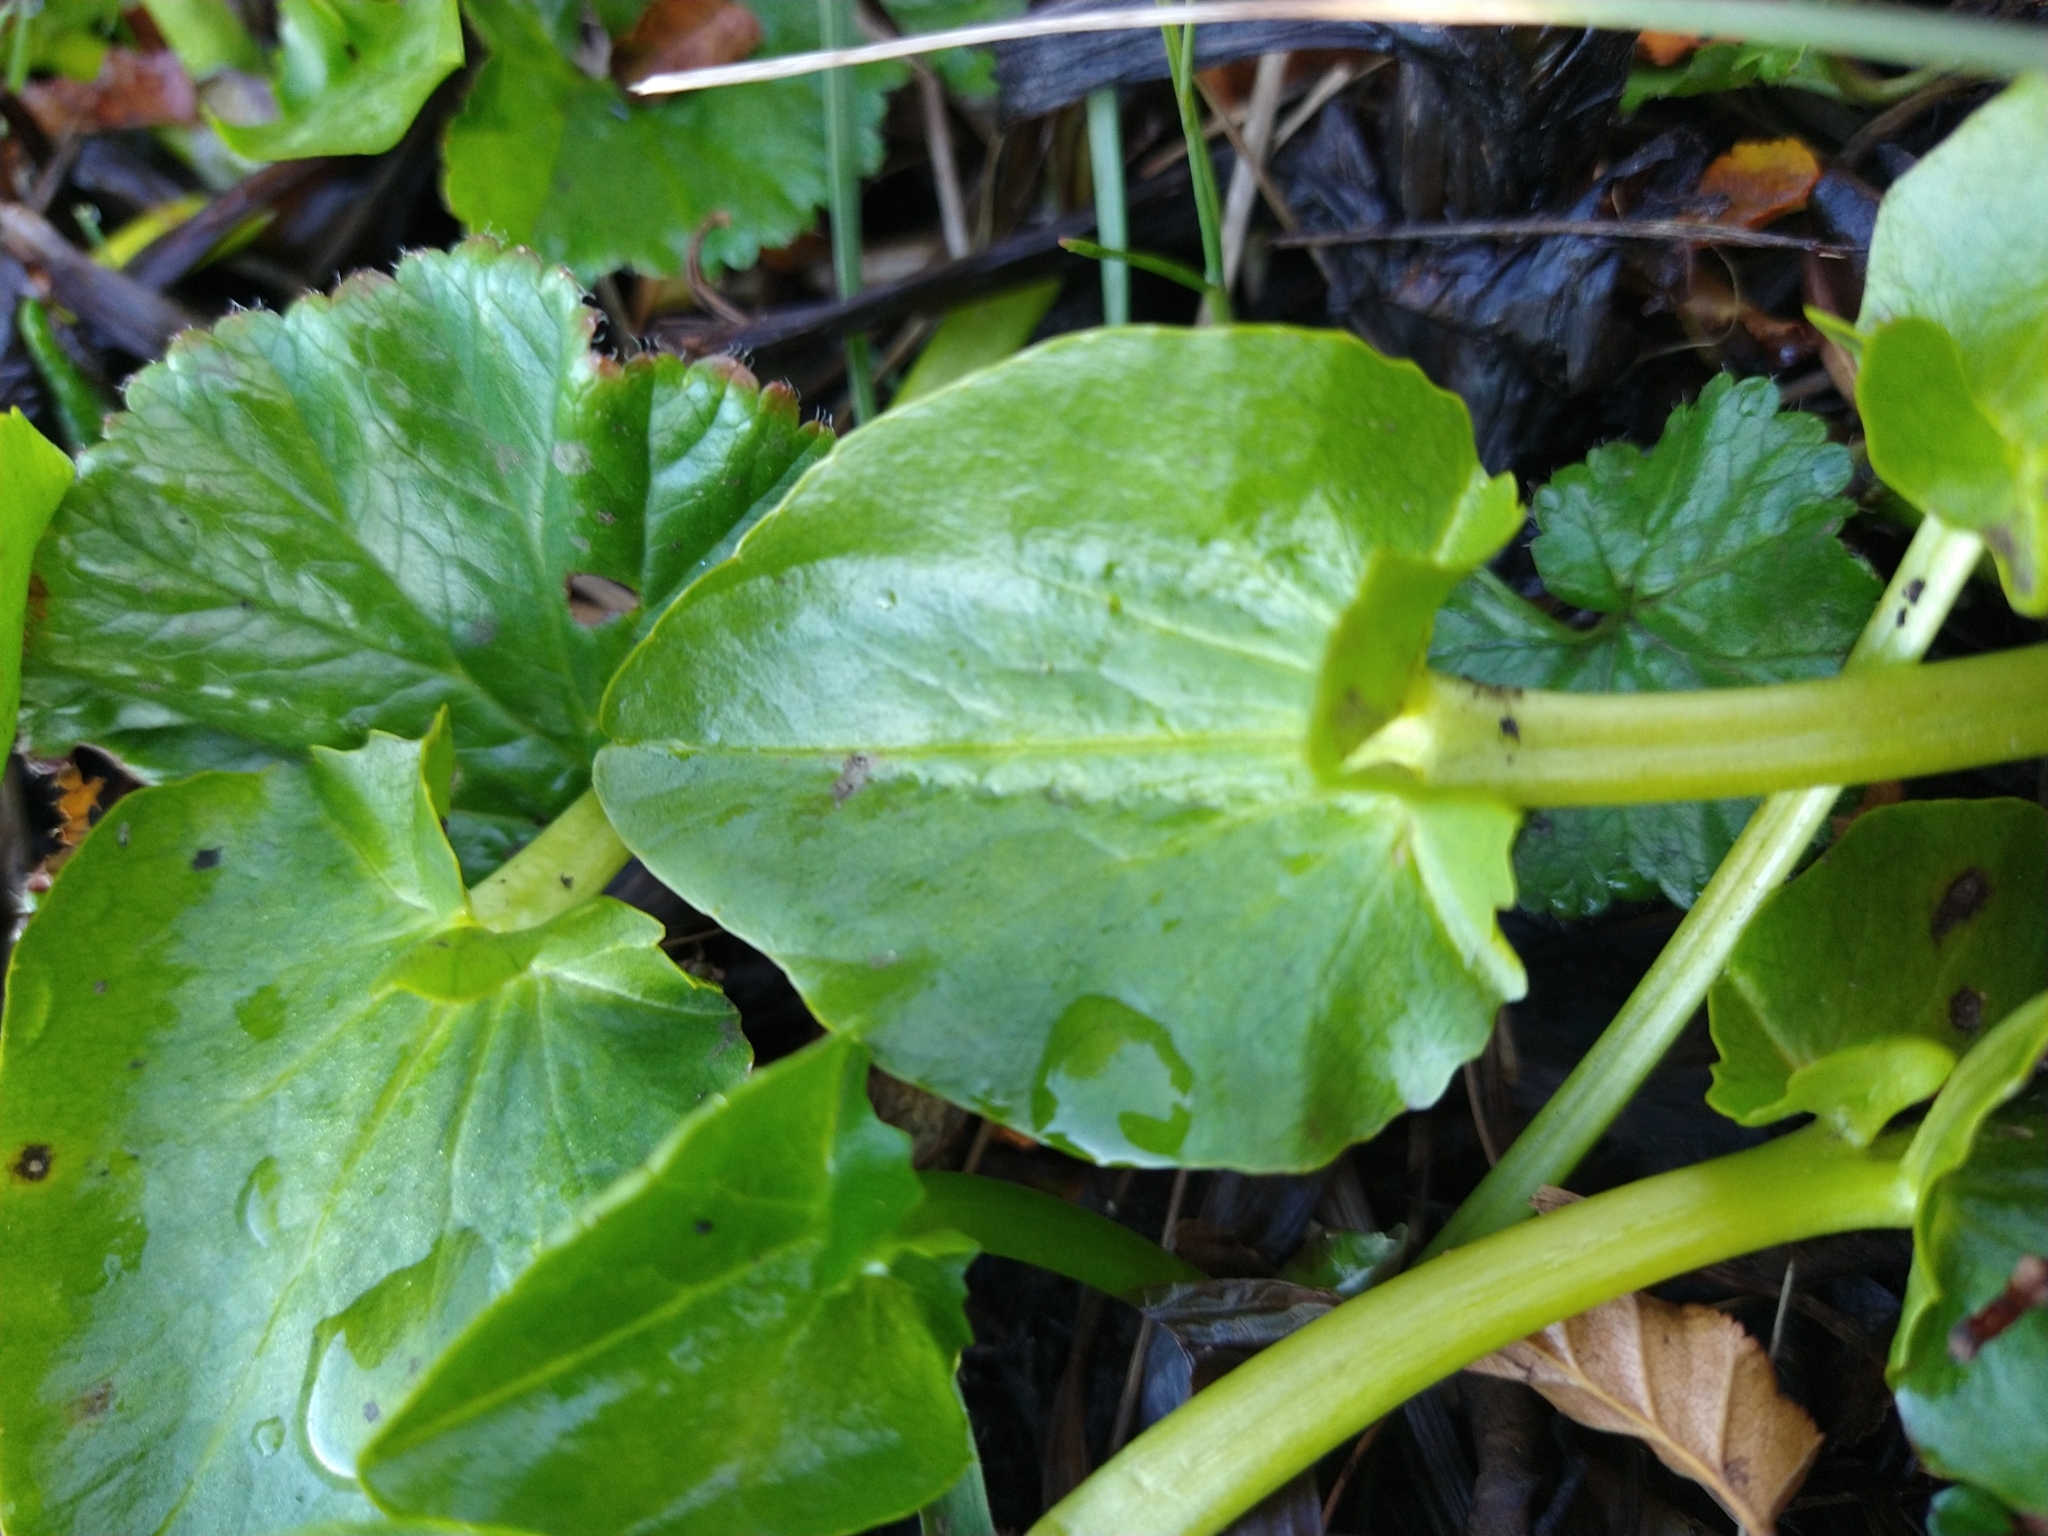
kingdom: Plantae
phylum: Tracheophyta
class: Magnoliopsida
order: Ranunculales
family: Ranunculaceae
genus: Caltha
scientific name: Caltha sagittata
